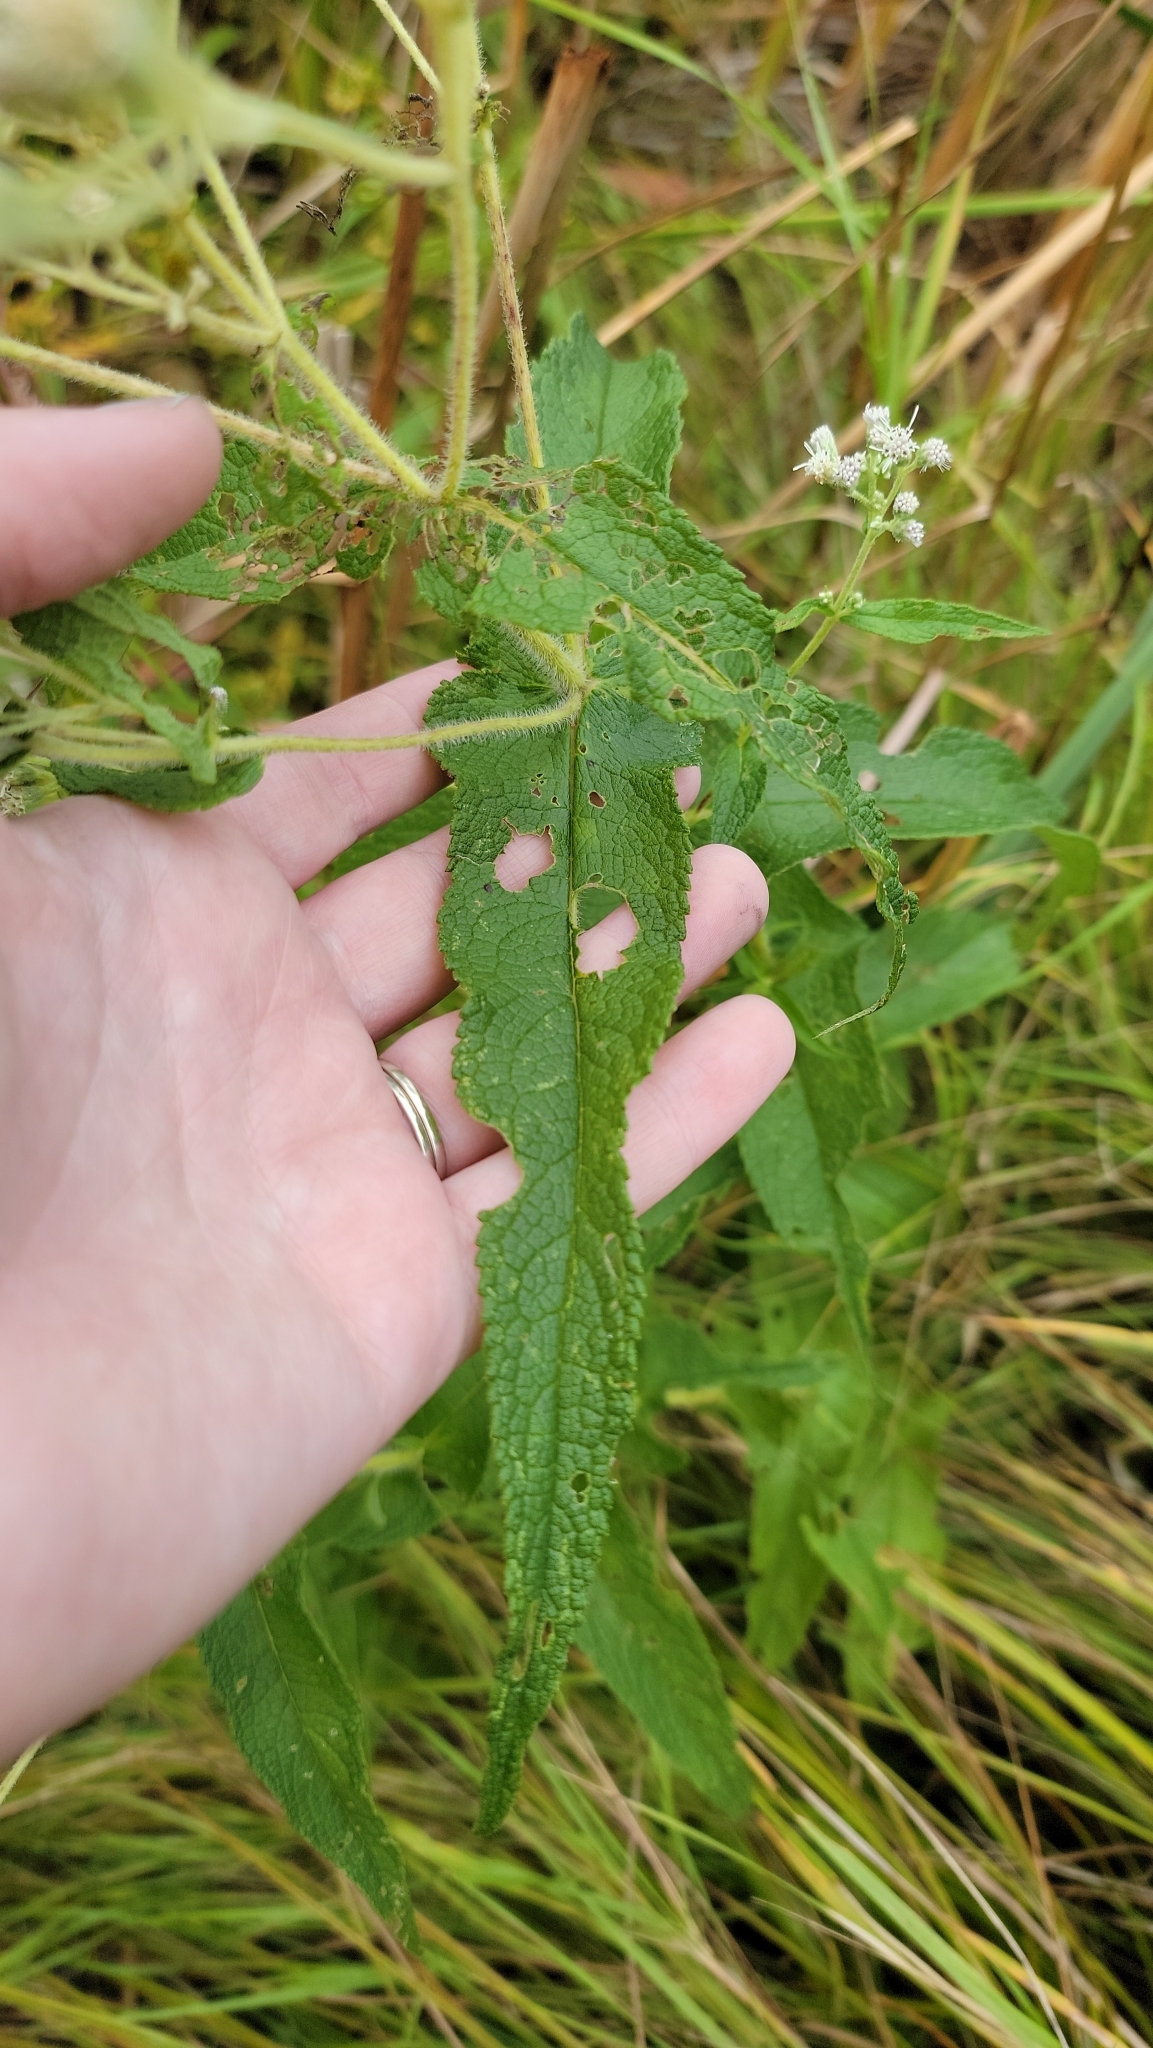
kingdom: Plantae
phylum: Tracheophyta
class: Magnoliopsida
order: Asterales
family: Asteraceae
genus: Eupatorium
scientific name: Eupatorium perfoliatum
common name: Boneset
